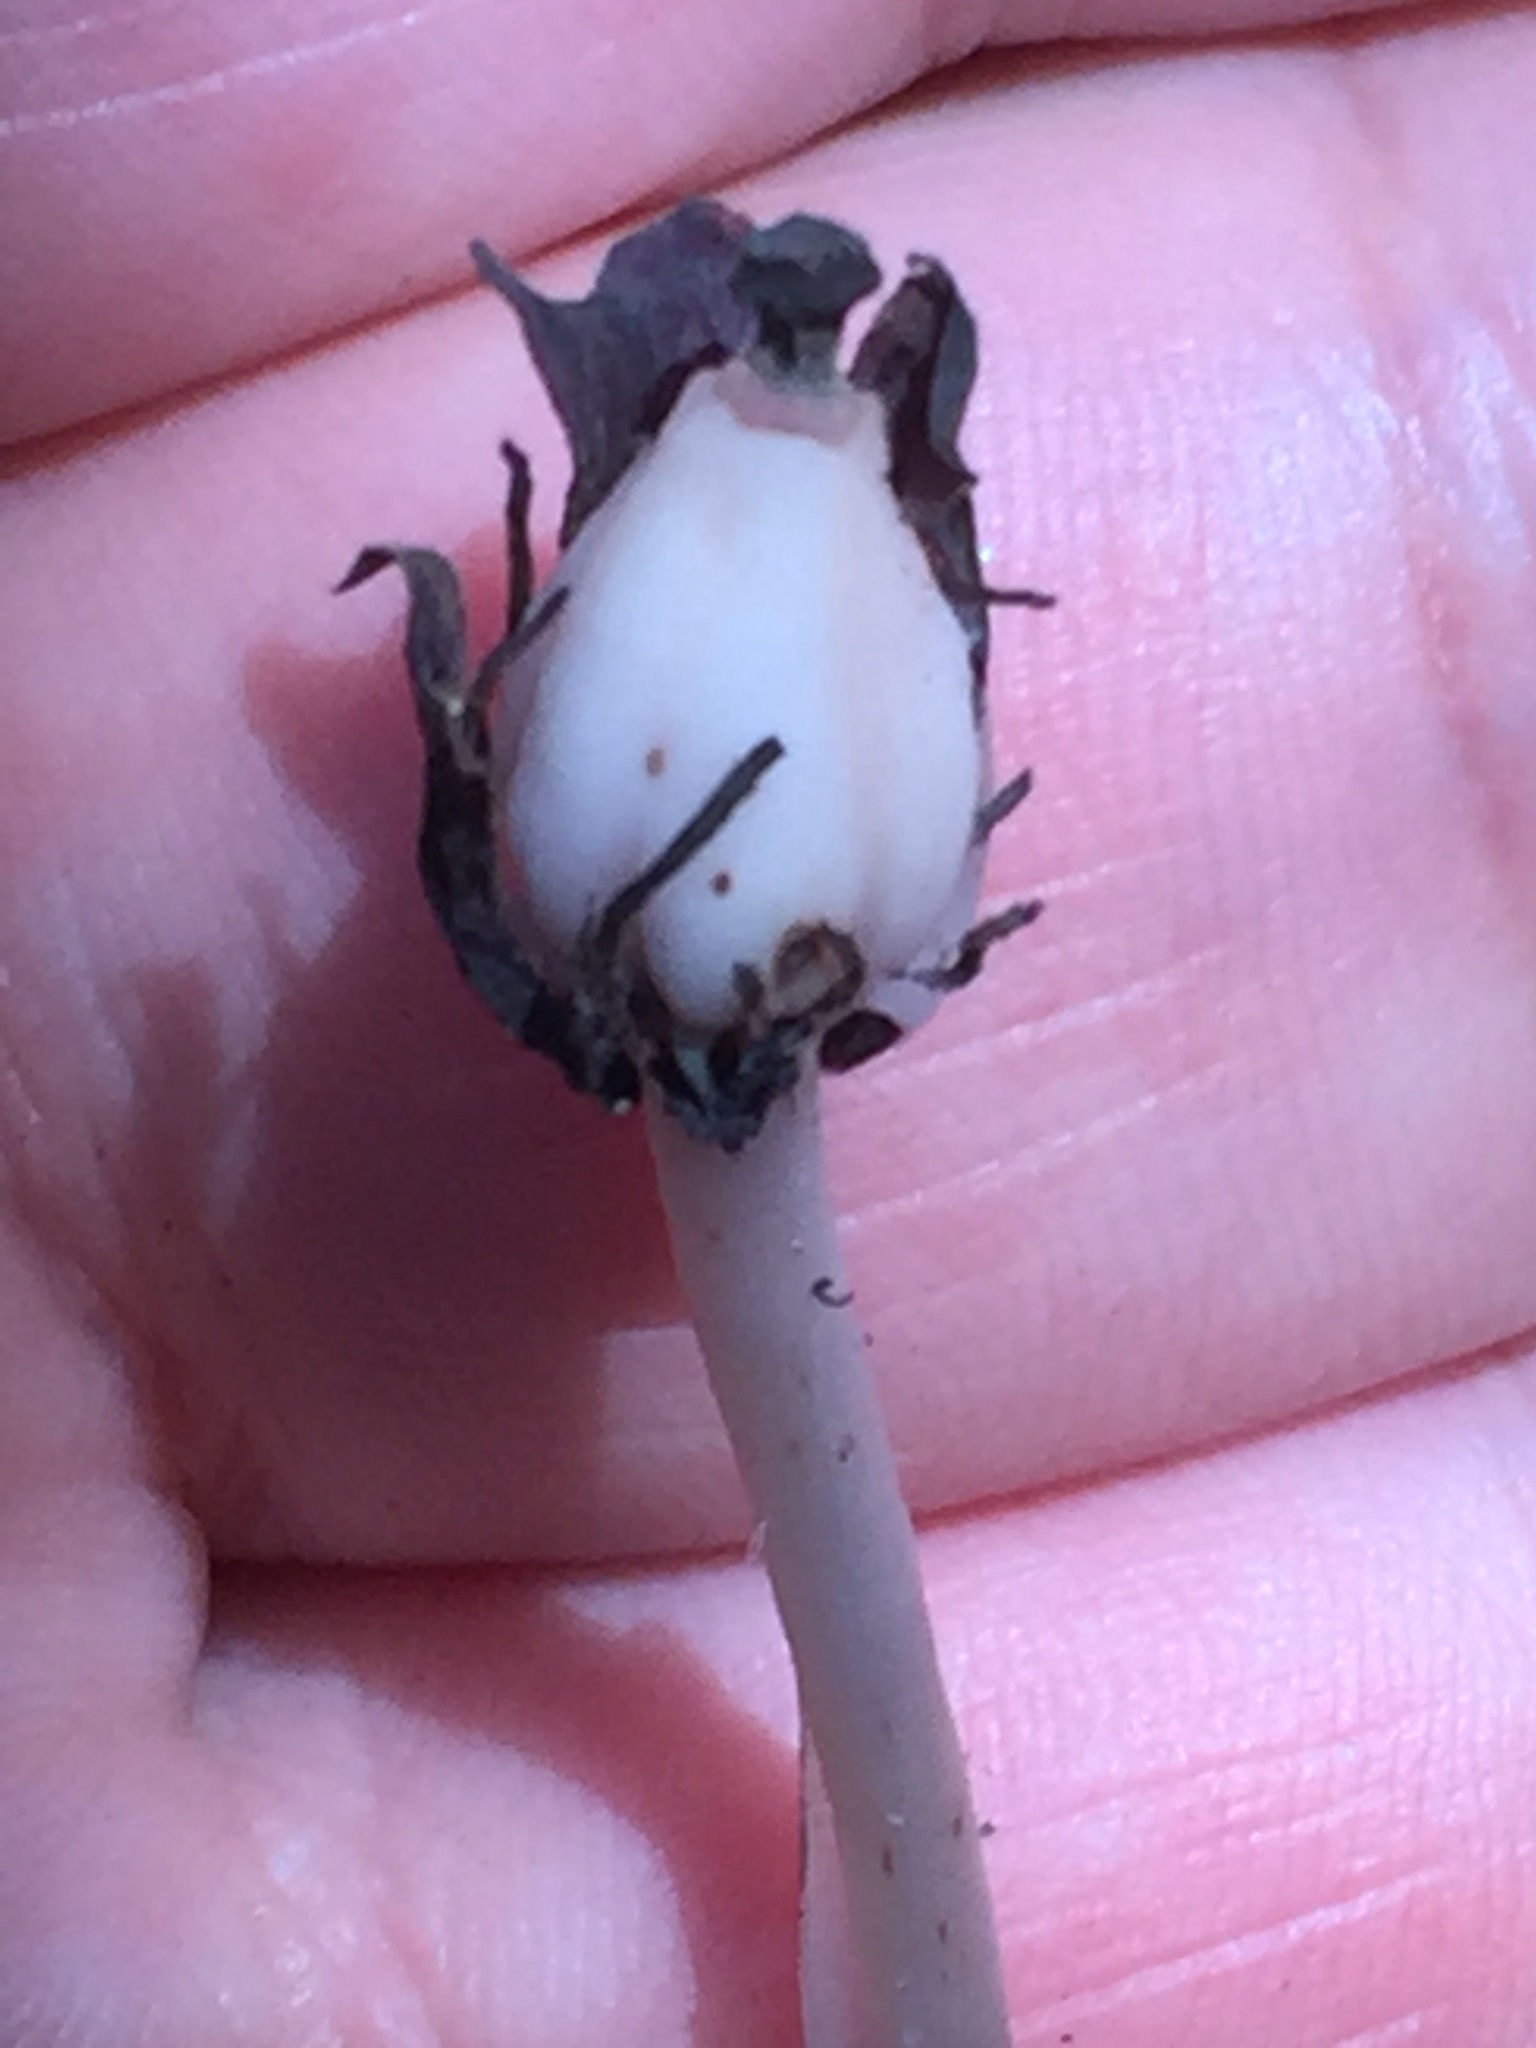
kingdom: Plantae
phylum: Tracheophyta
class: Magnoliopsida
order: Ericales
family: Ericaceae
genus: Monotropa
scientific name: Monotropa uniflora
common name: Convulsion root
